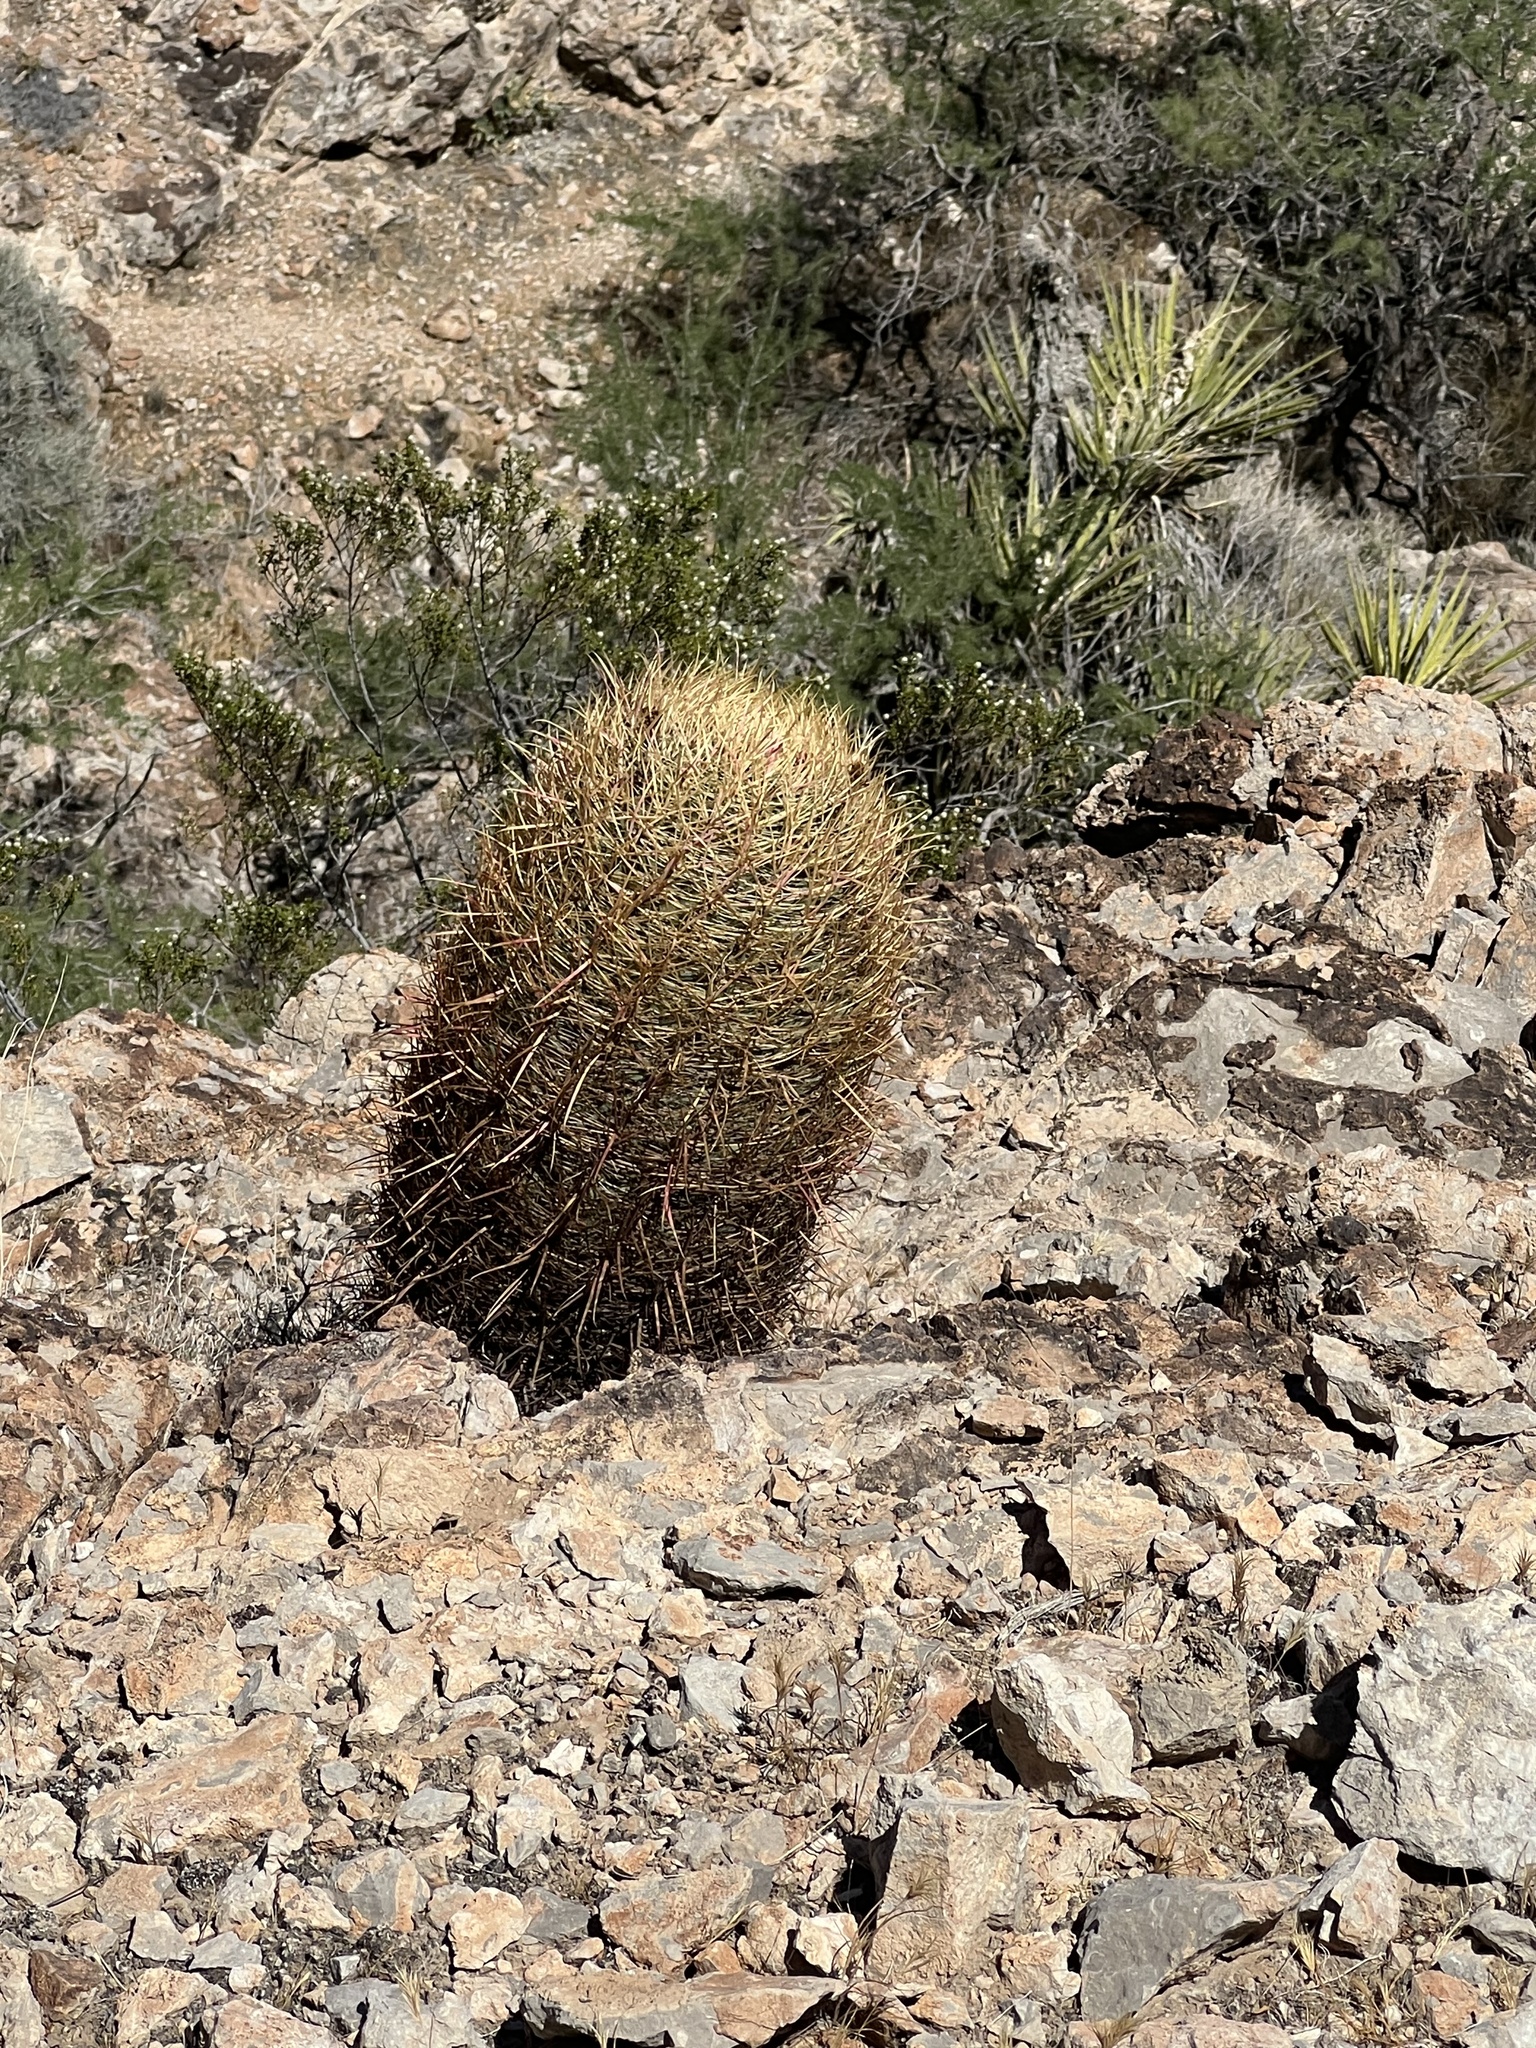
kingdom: Plantae
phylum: Tracheophyta
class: Magnoliopsida
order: Caryophyllales
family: Cactaceae
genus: Ferocactus
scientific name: Ferocactus cylindraceus
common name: California barrel cactus
